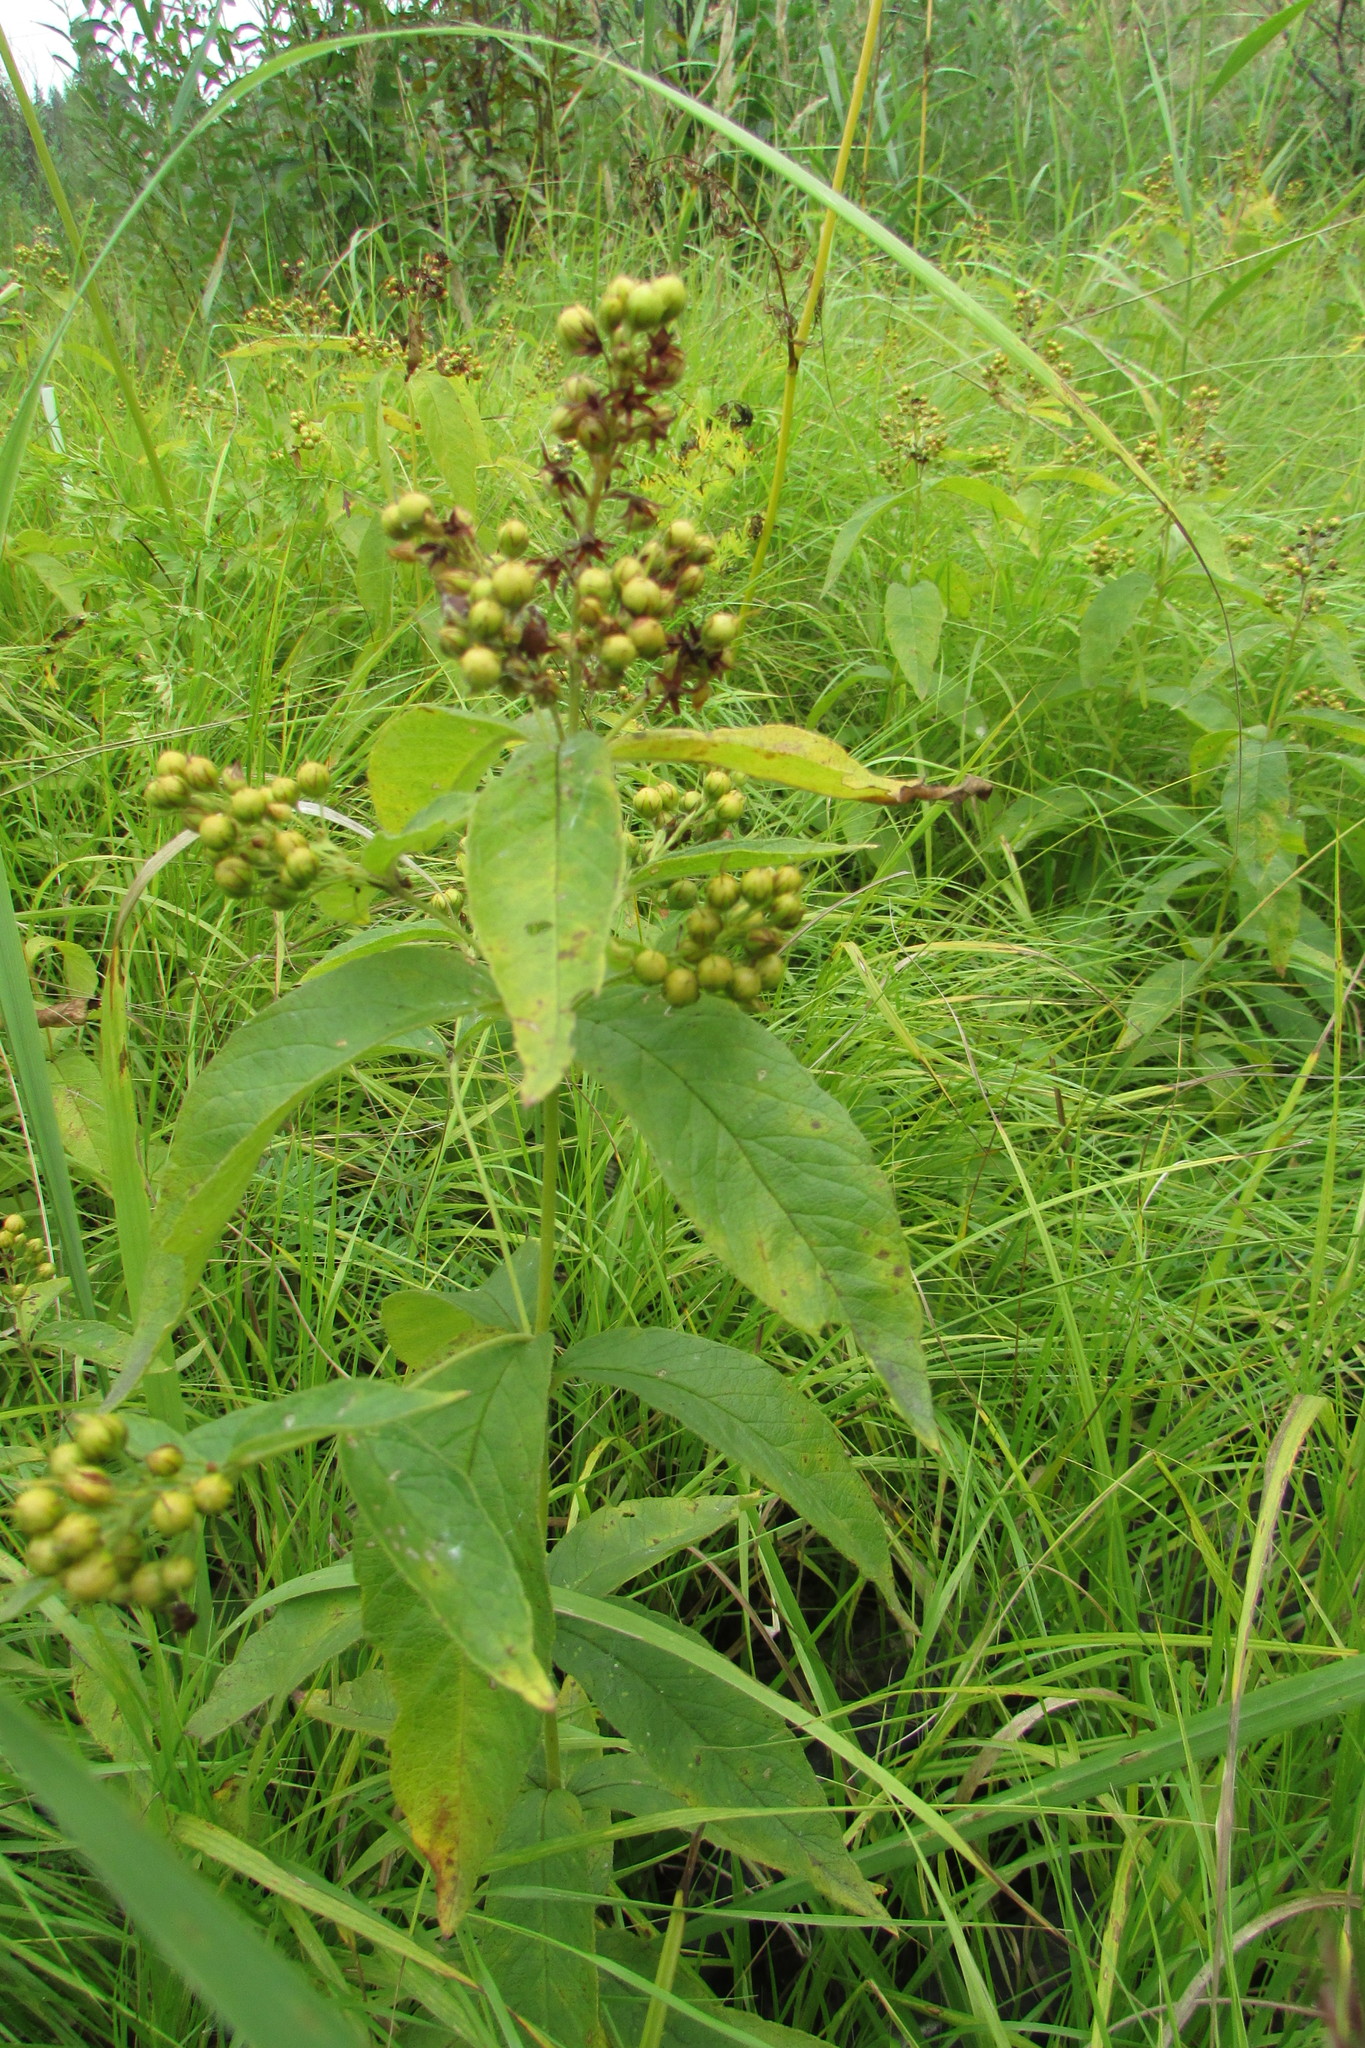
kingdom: Plantae
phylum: Tracheophyta
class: Magnoliopsida
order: Ericales
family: Primulaceae
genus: Lysimachia
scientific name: Lysimachia vulgaris
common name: Yellow loosestrife
